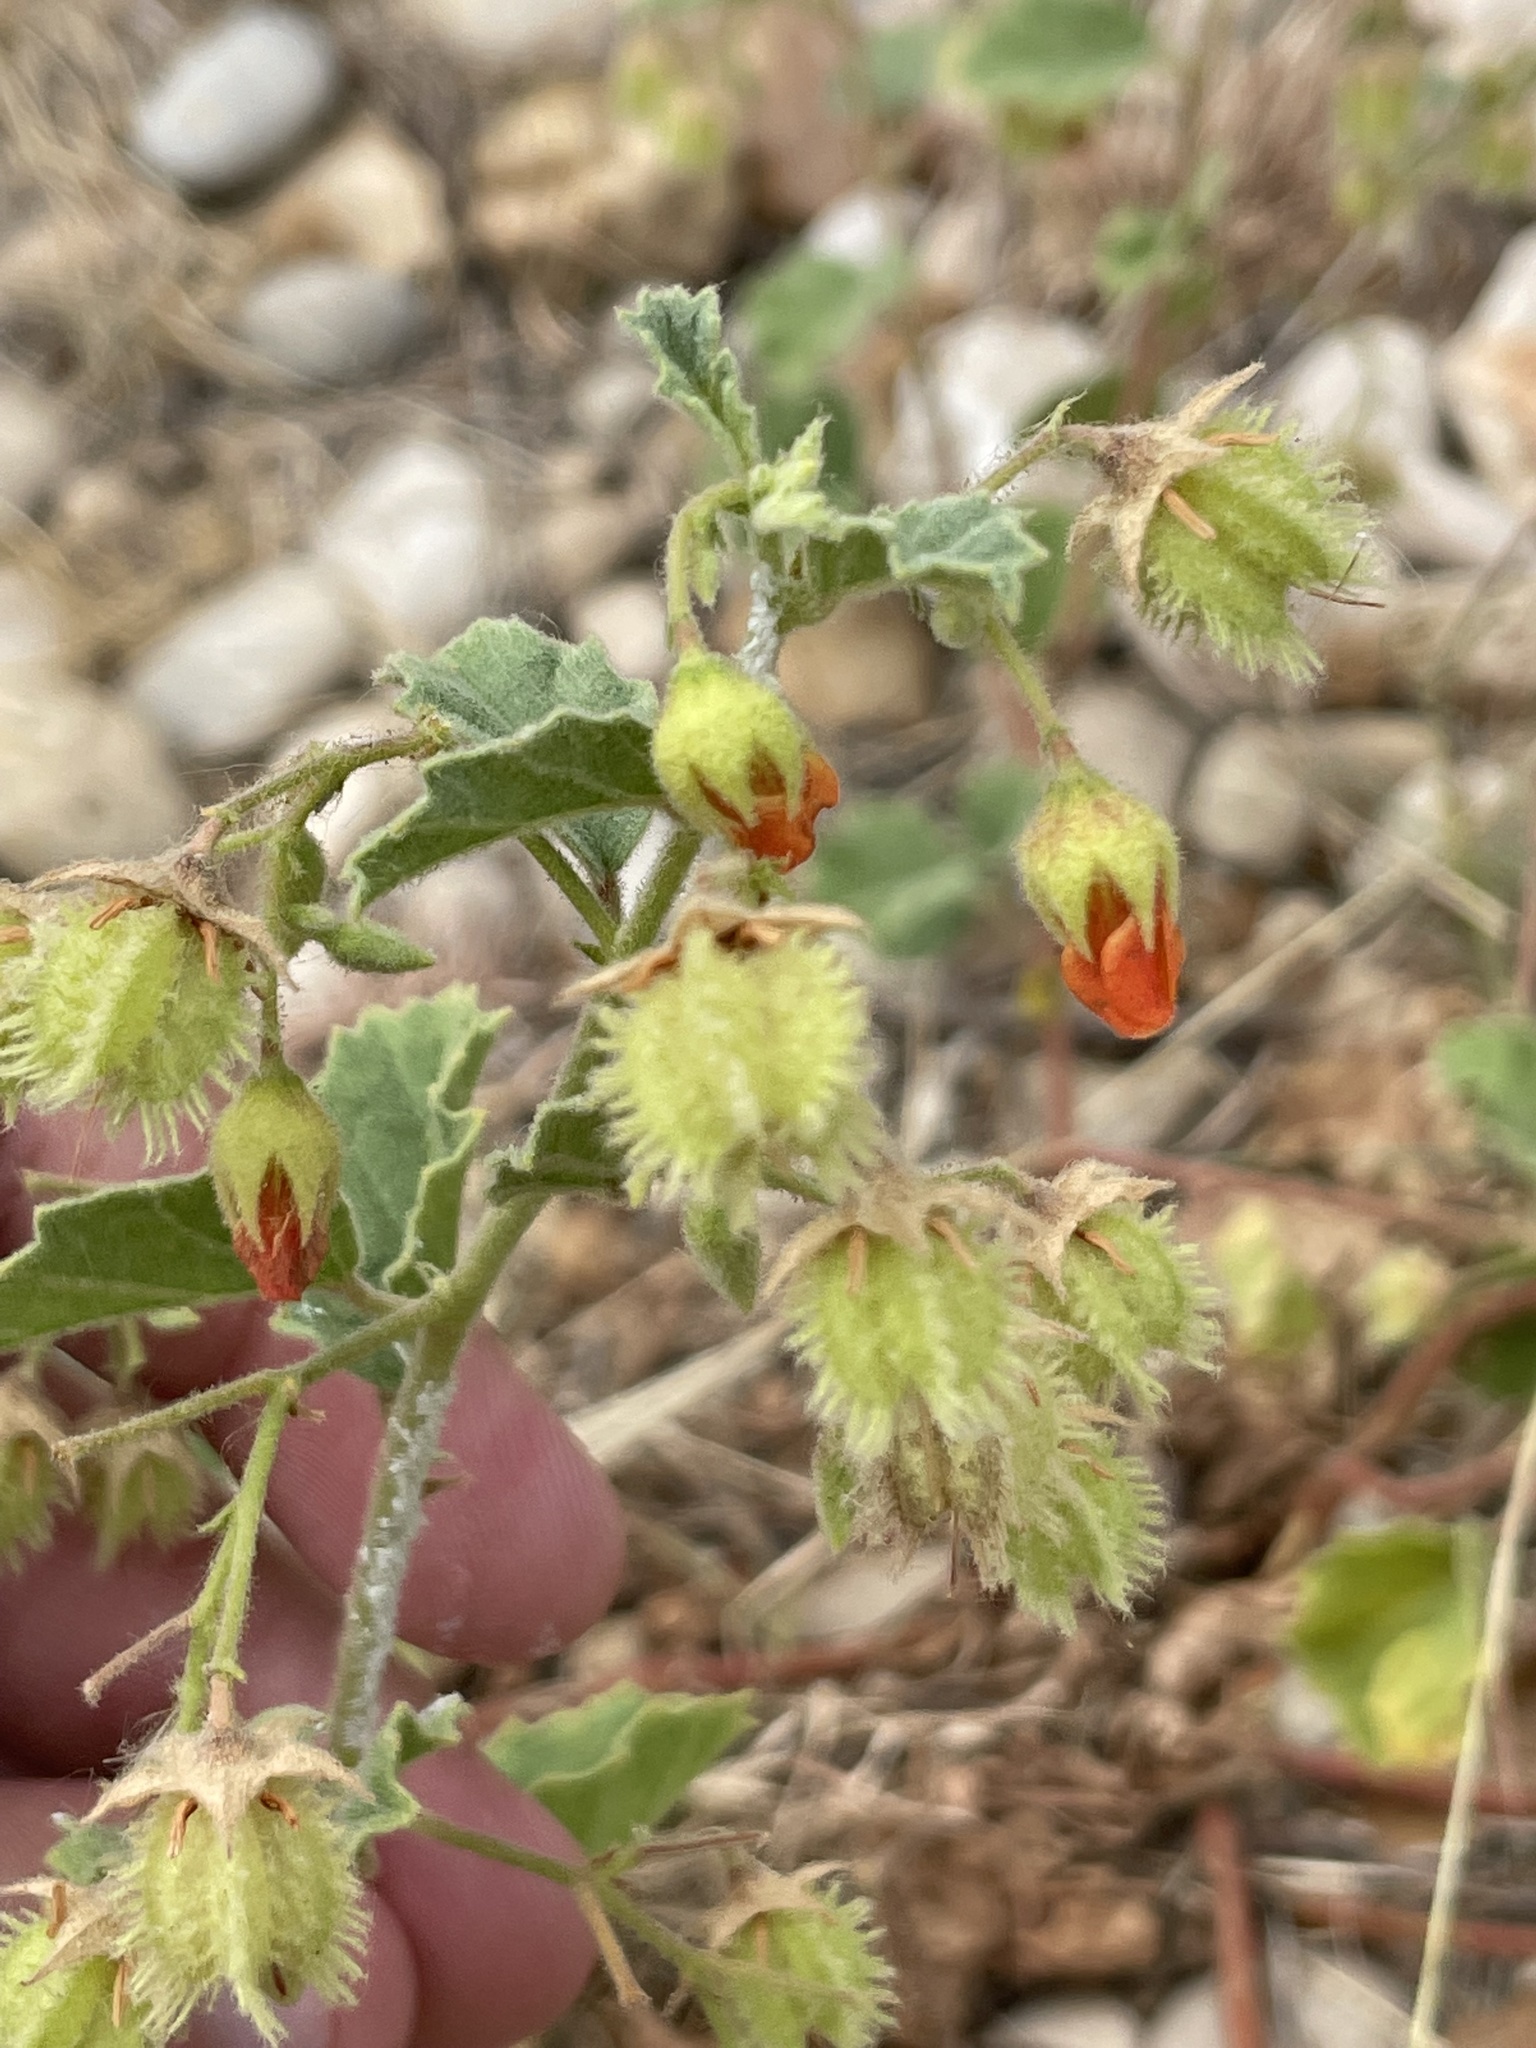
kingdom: Plantae
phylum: Tracheophyta
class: Magnoliopsida
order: Malvales
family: Malvaceae
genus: Hermannia
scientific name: Hermannia texana
